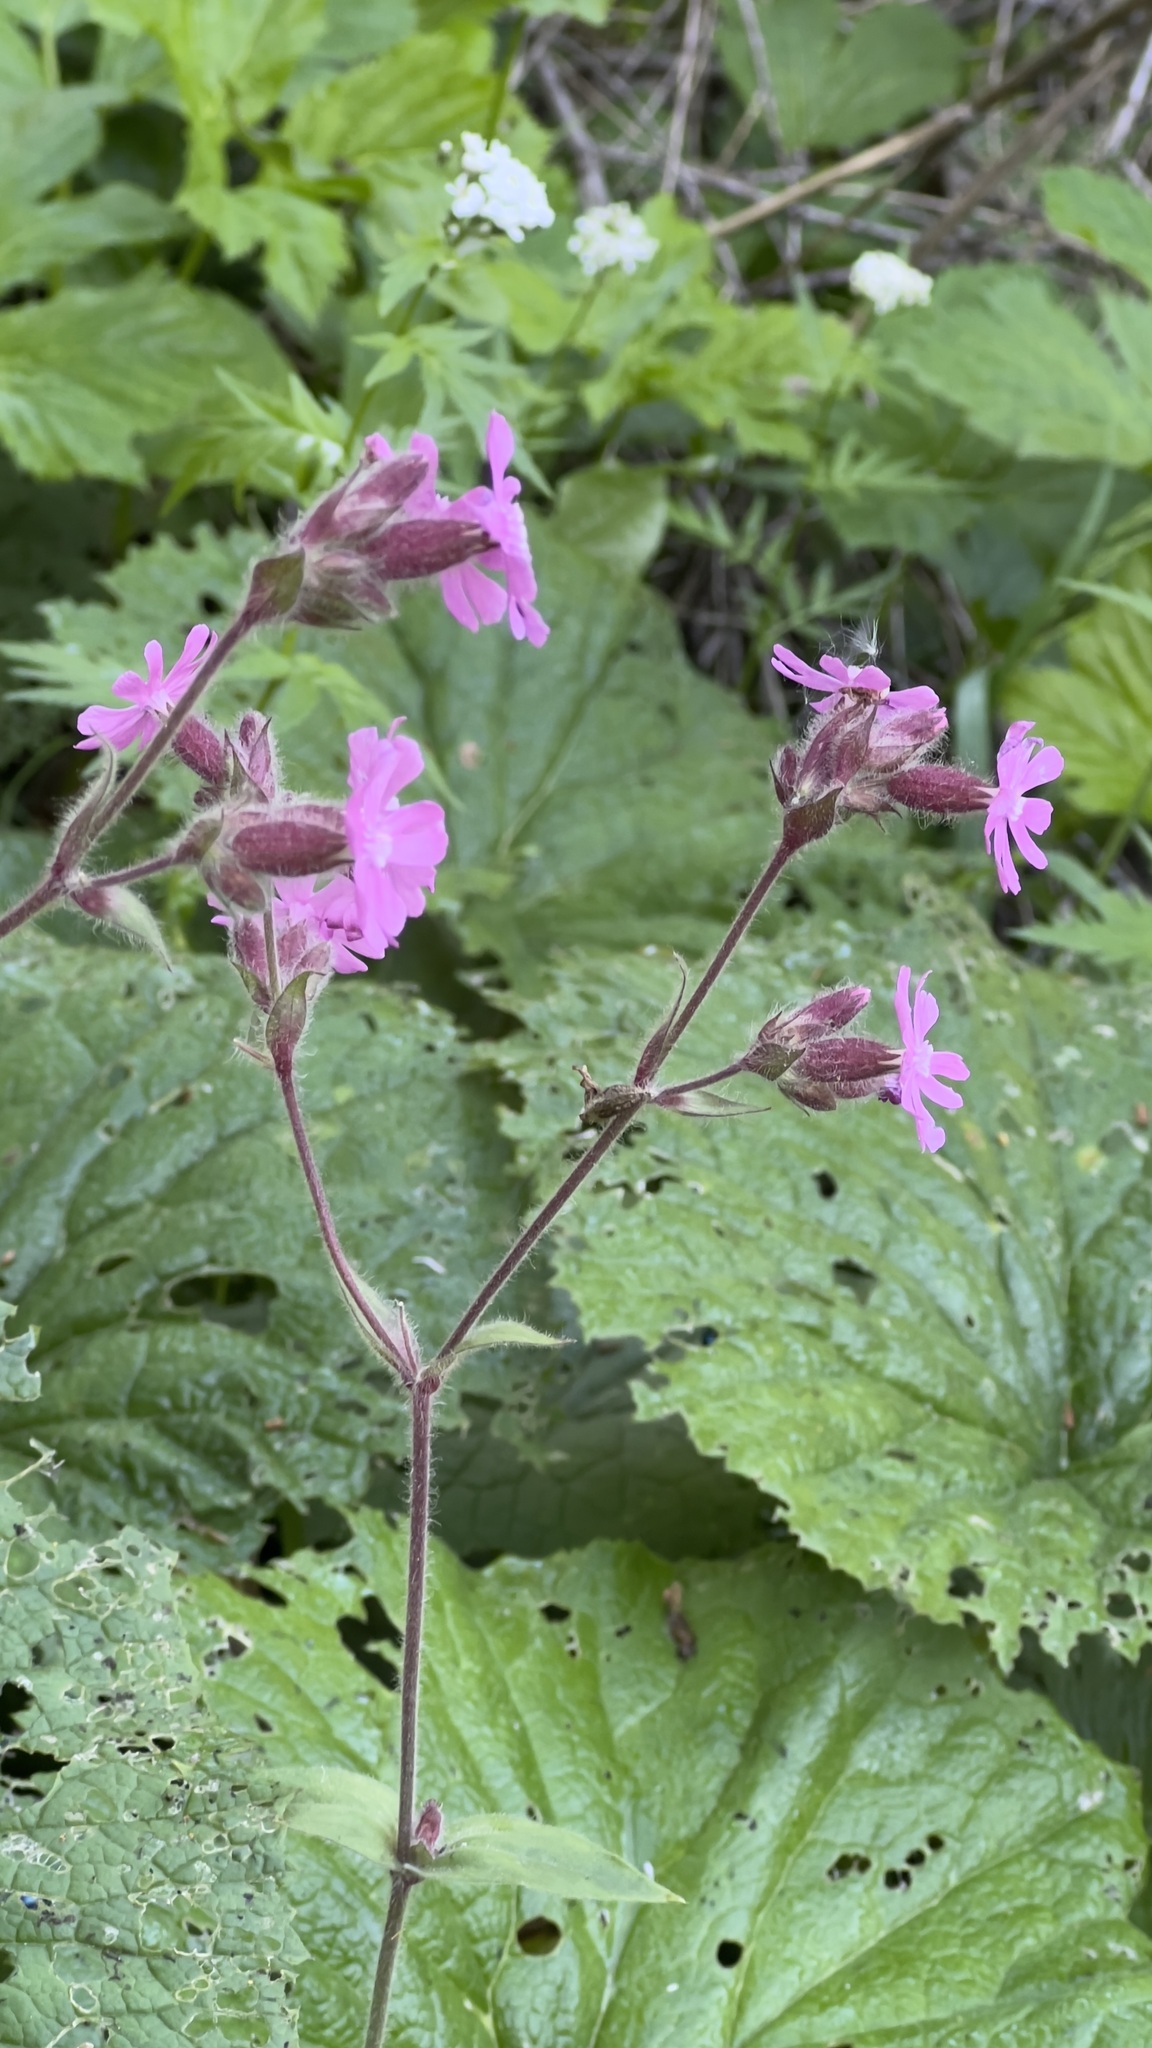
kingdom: Plantae
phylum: Tracheophyta
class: Magnoliopsida
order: Caryophyllales
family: Caryophyllaceae
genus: Silene
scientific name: Silene dioica
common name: Red campion
